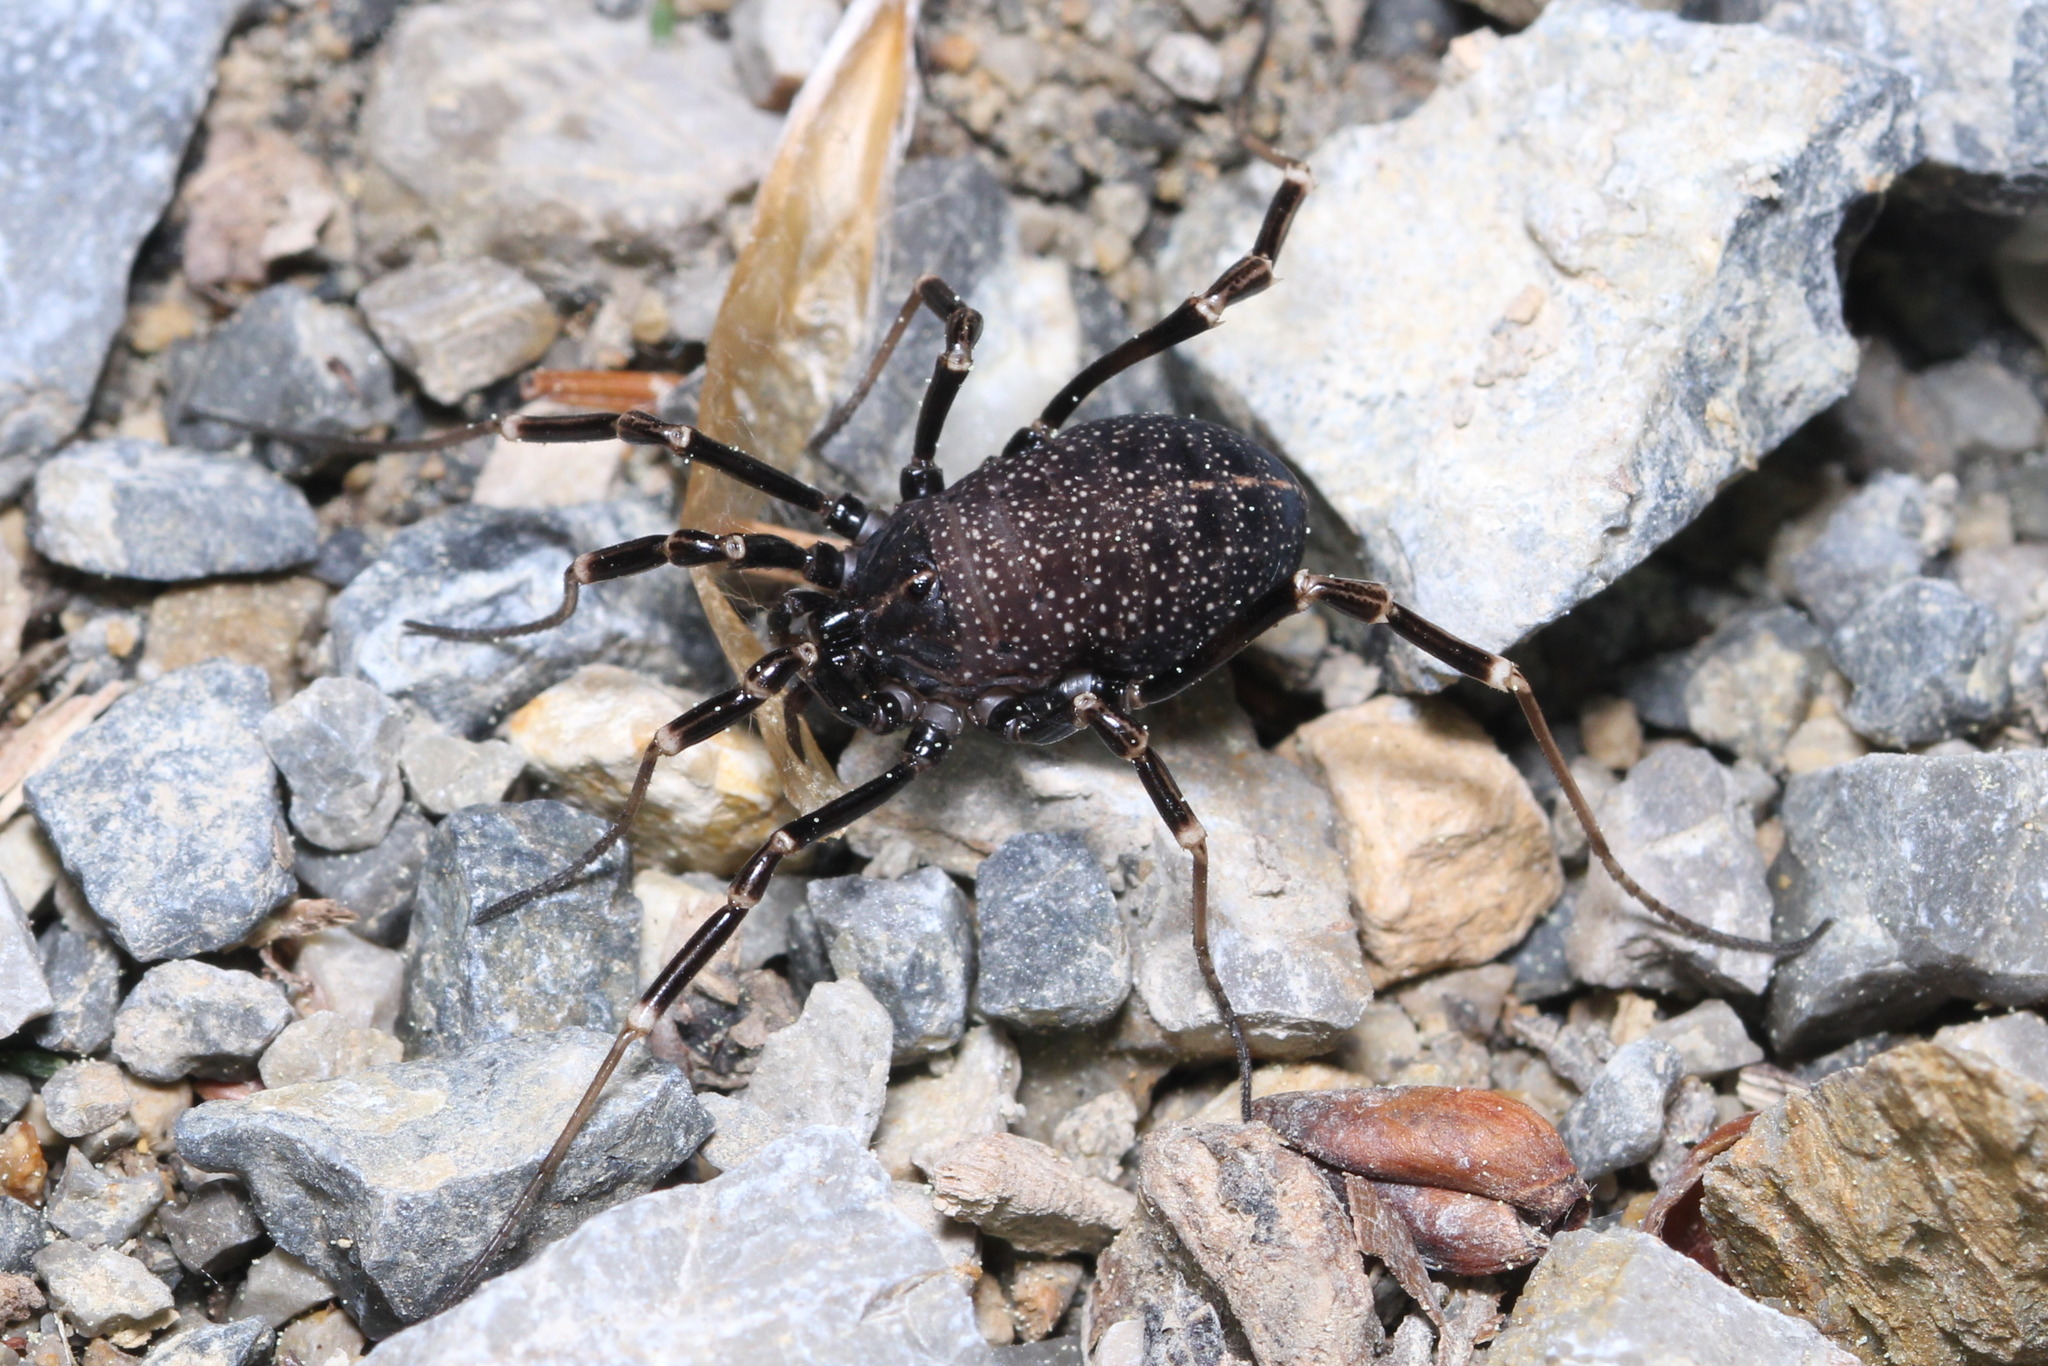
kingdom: Animalia
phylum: Arthropoda
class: Arachnida
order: Opiliones
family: Phalangiidae
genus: Egaenus
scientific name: Egaenus convexus
